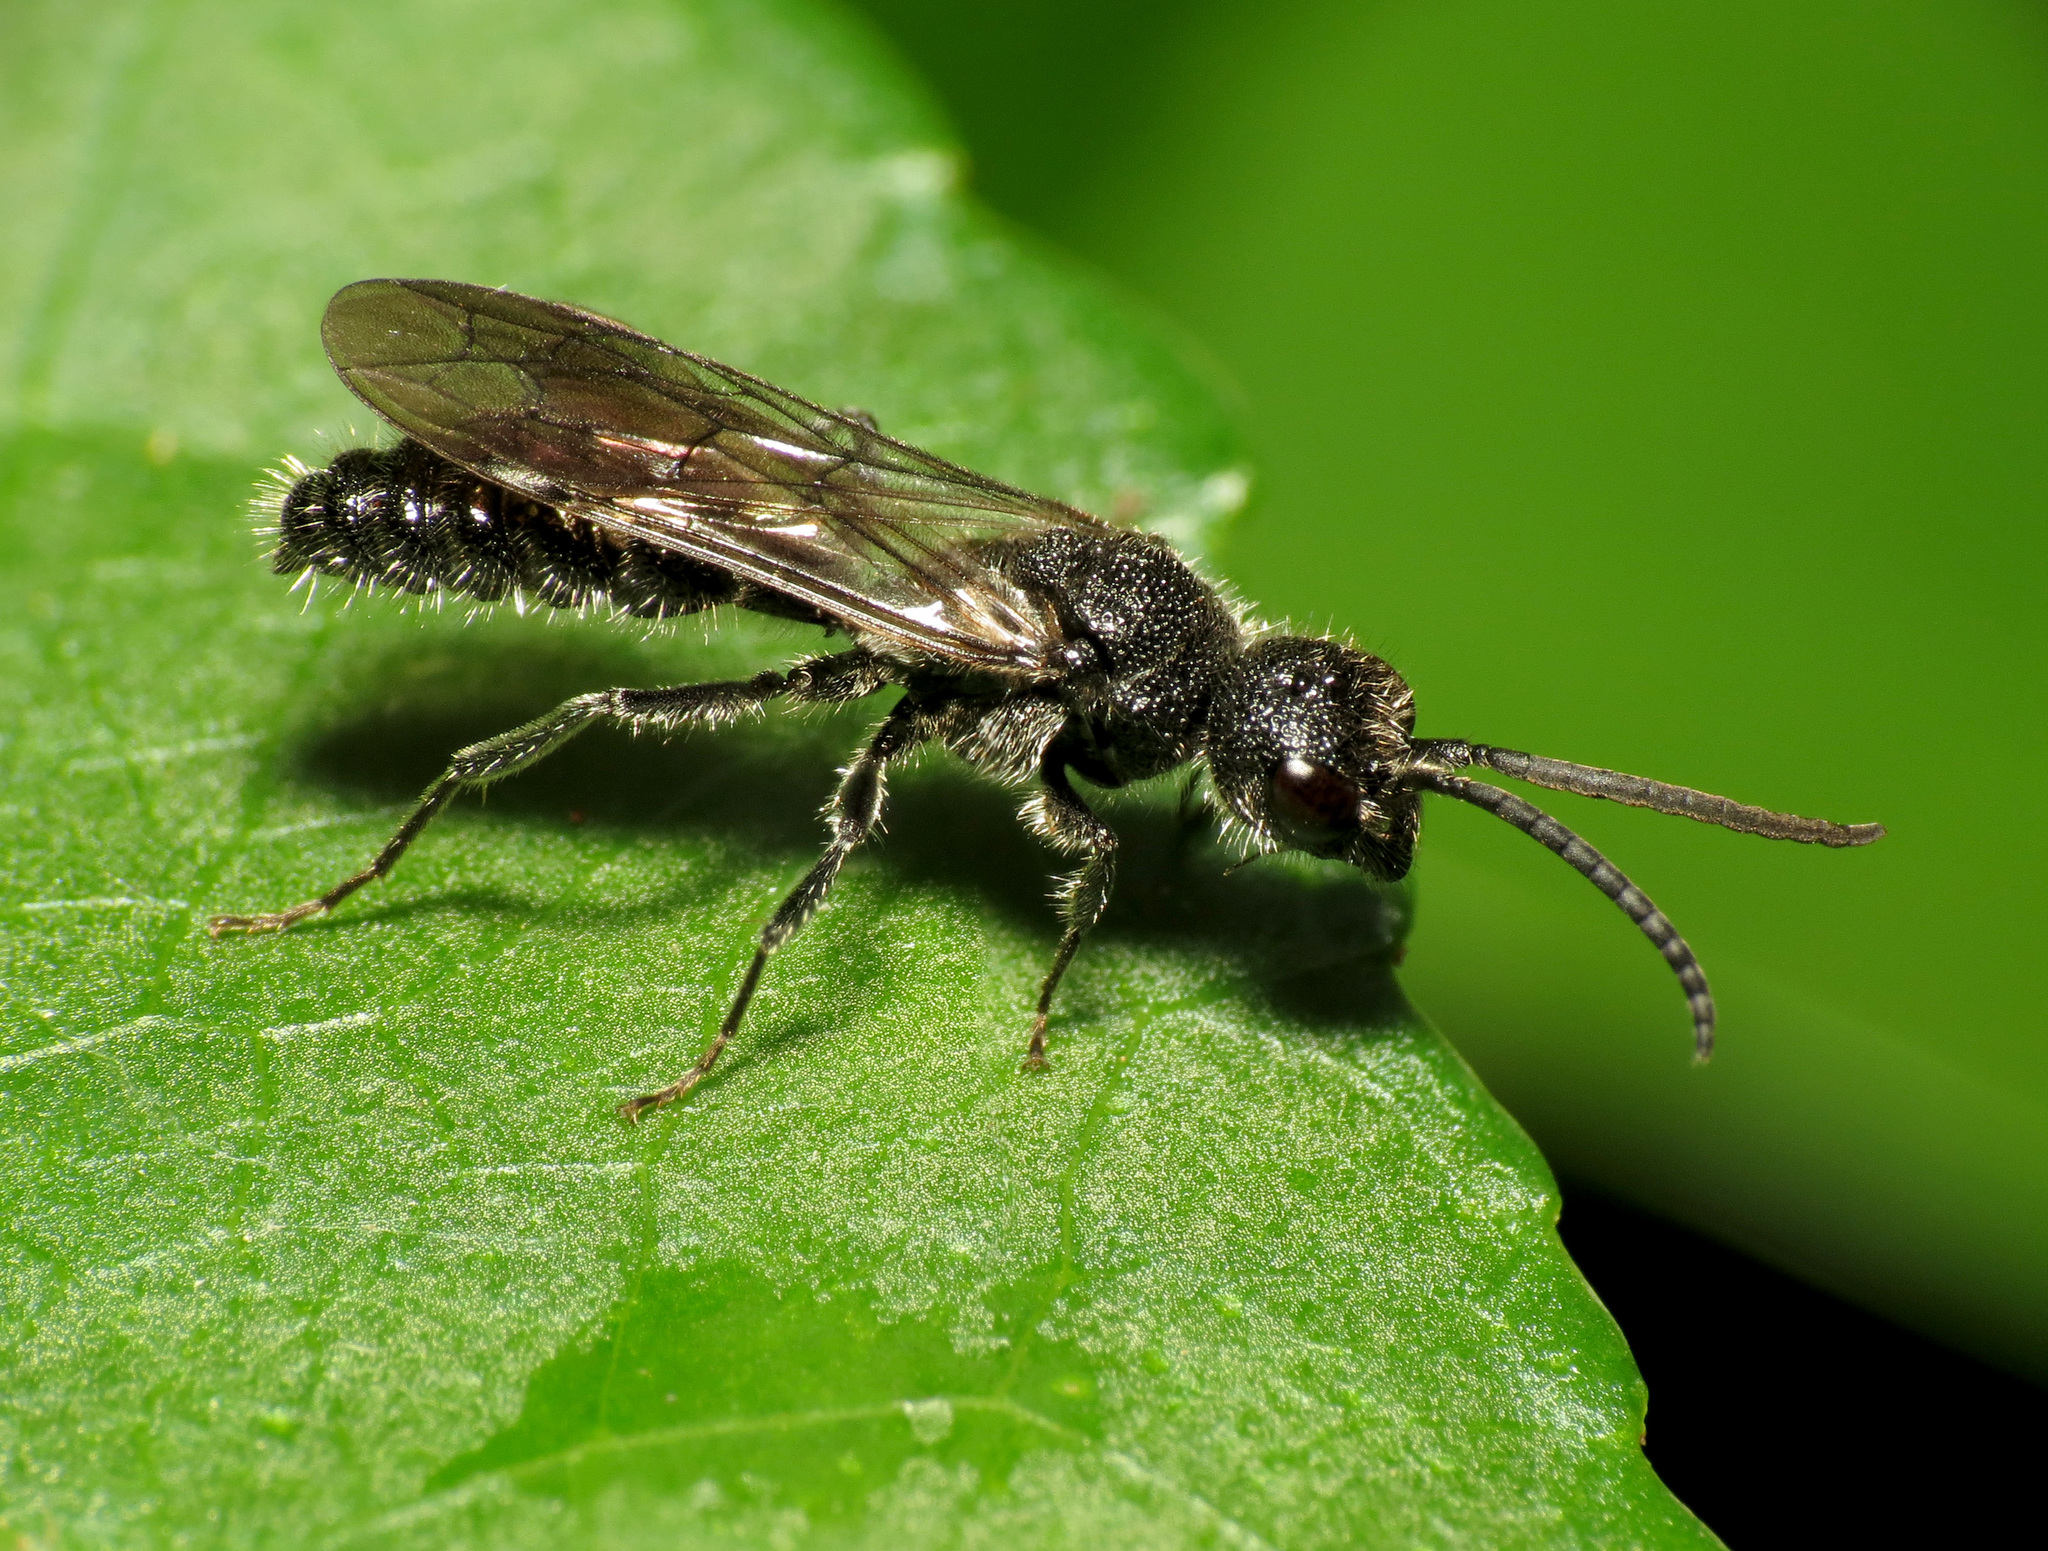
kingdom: Animalia
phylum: Arthropoda
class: Insecta
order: Hymenoptera
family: Mutillidae
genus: Myrmosa
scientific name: Myrmosa unicolor
